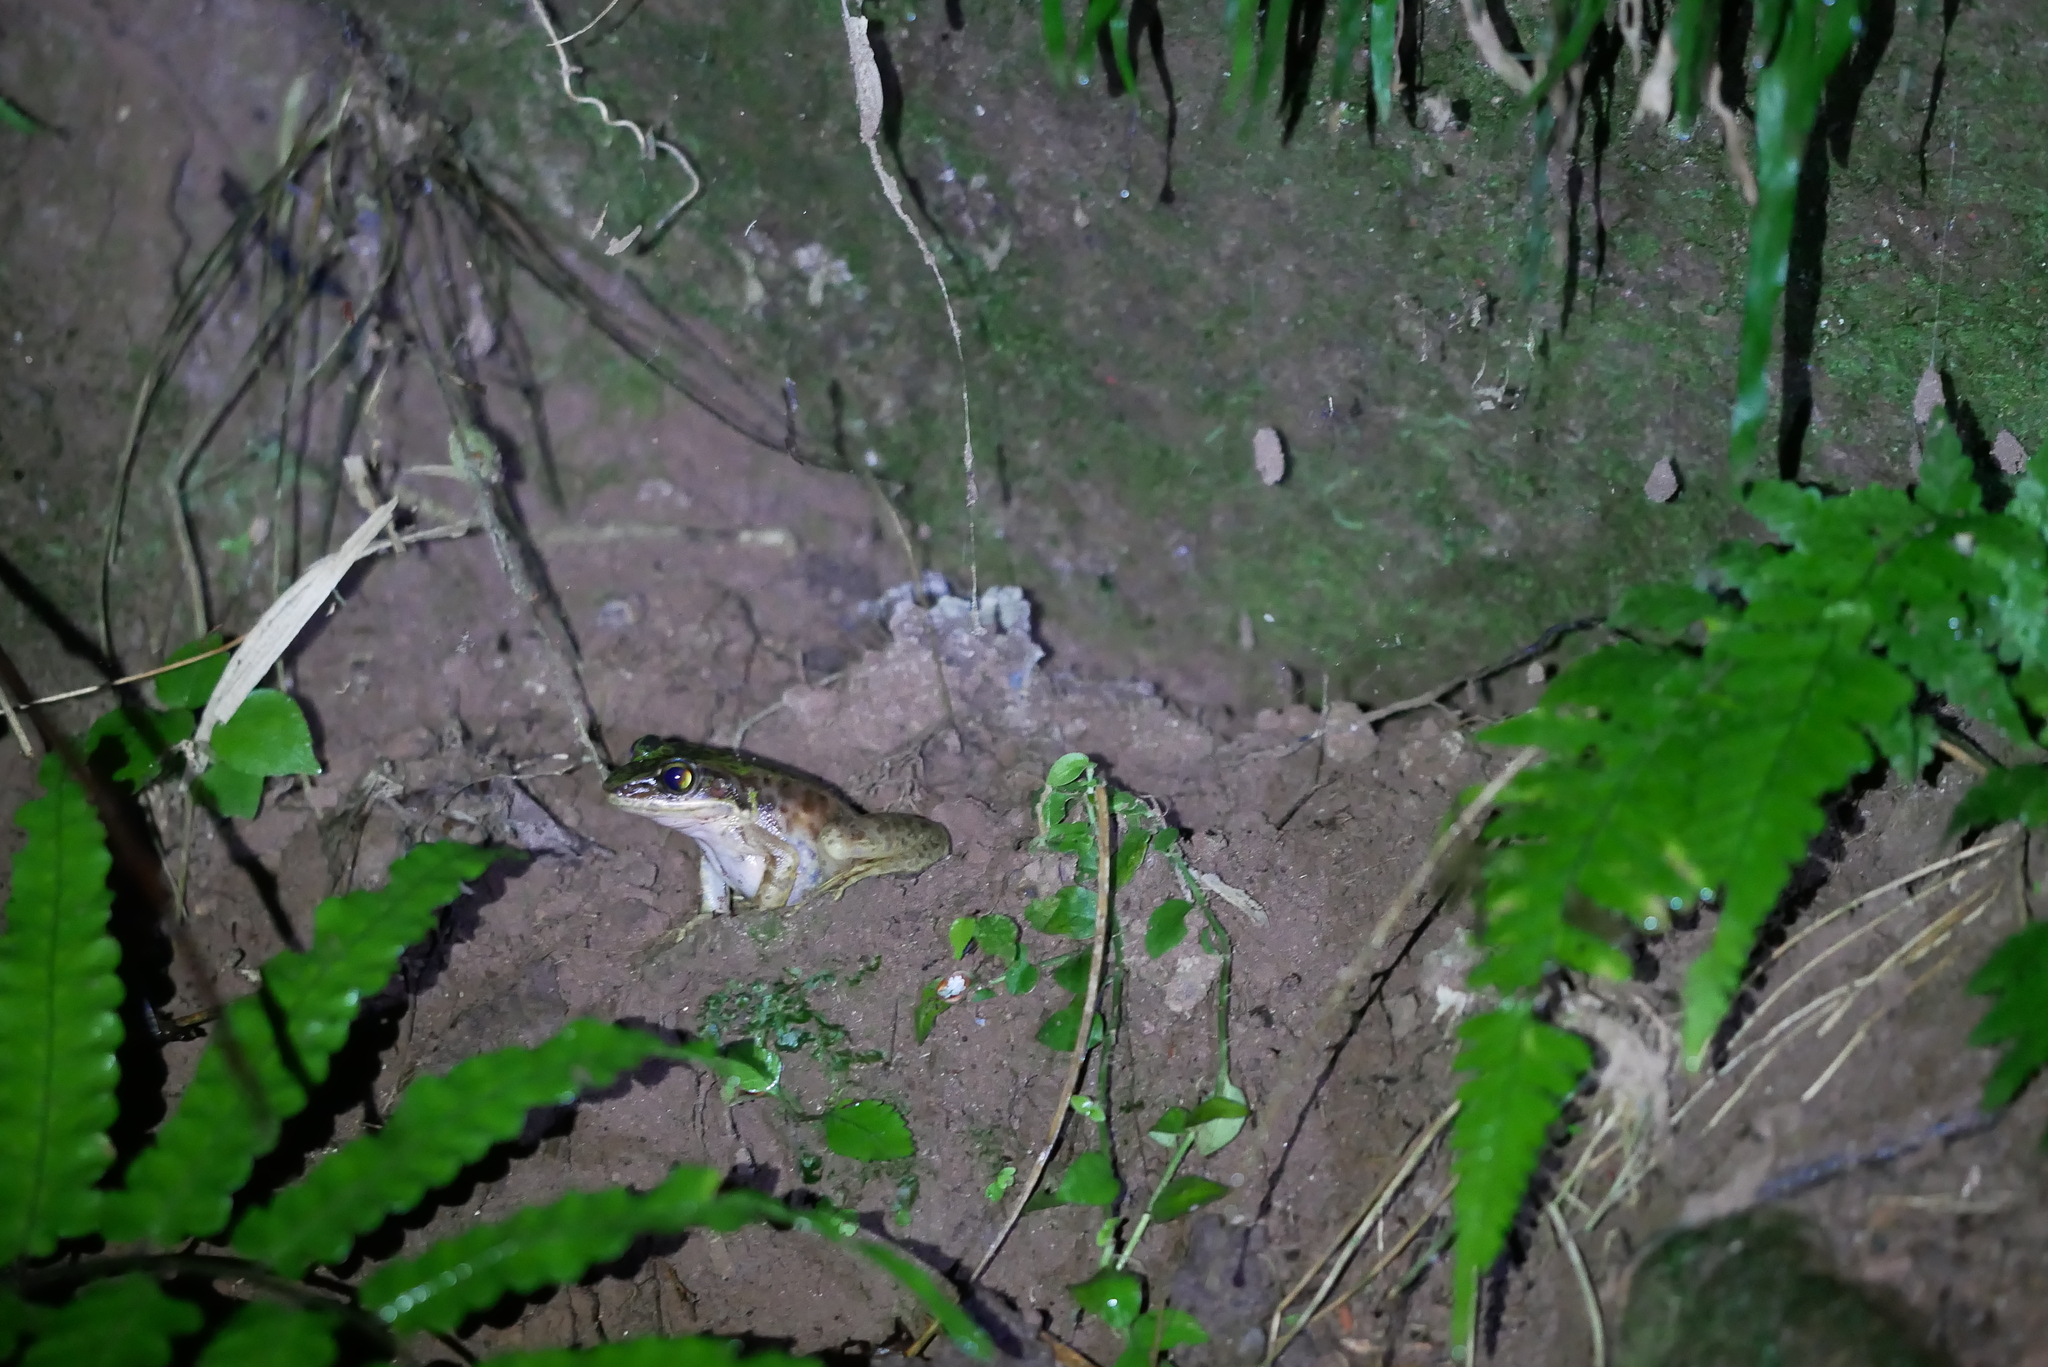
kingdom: Animalia
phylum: Chordata
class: Amphibia
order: Anura
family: Ranidae
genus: Odorrana
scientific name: Odorrana swinhoana
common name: Bangkimtsing frog
